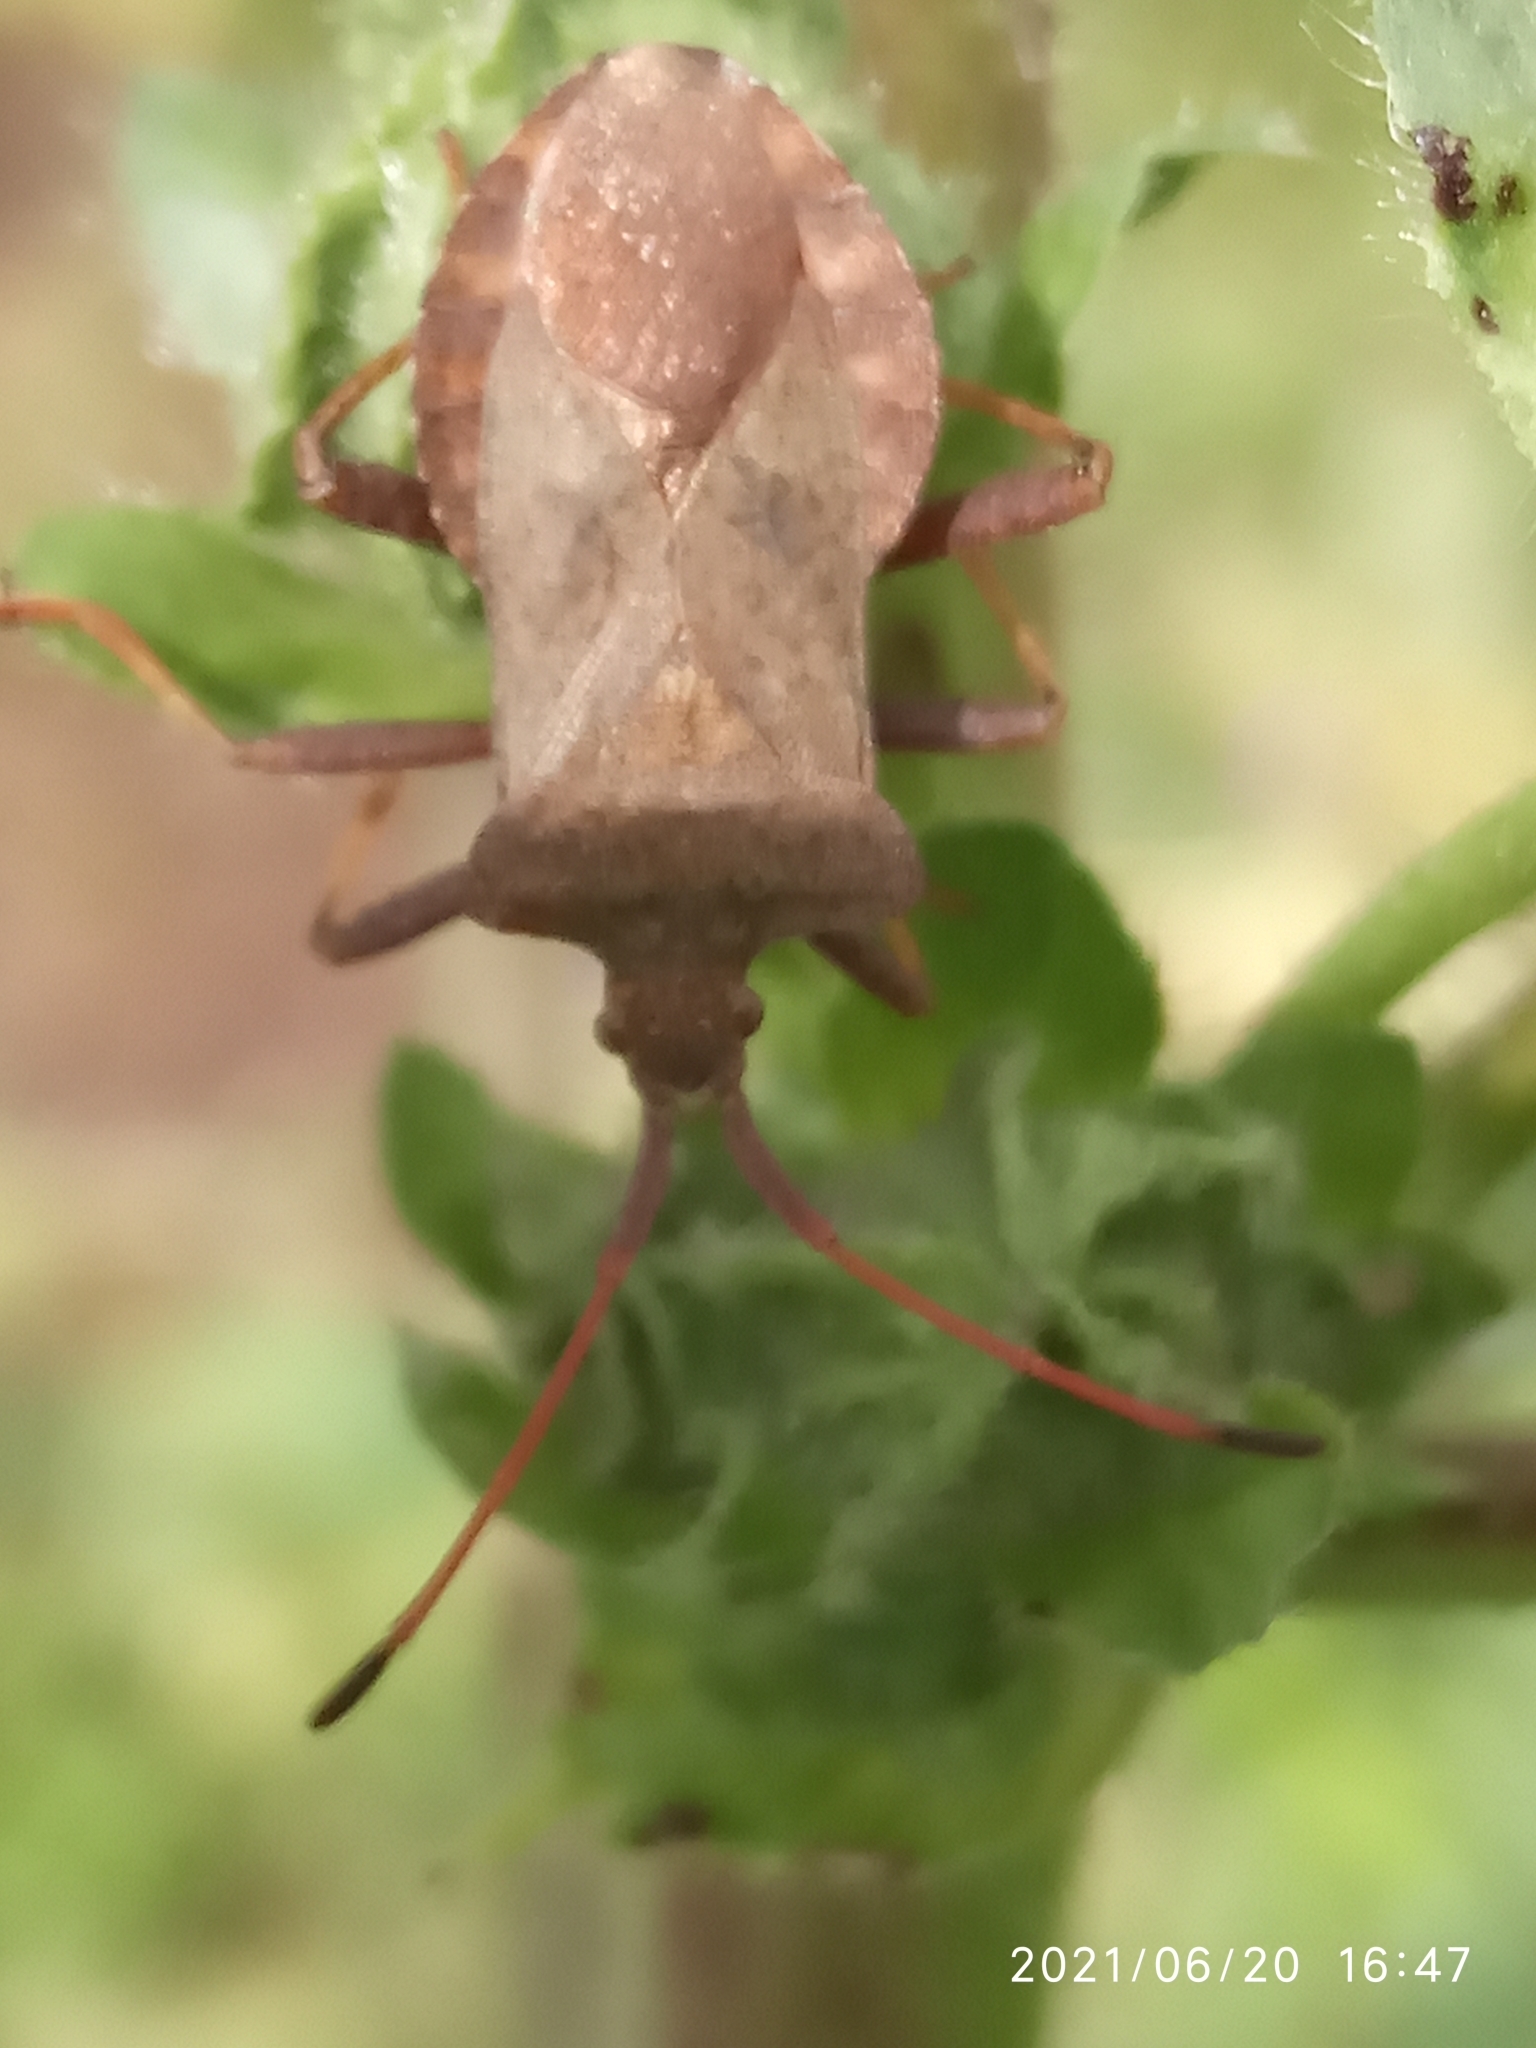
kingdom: Animalia
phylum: Arthropoda
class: Insecta
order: Hemiptera
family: Coreidae
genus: Coreus
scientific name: Coreus marginatus
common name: Dock bug
